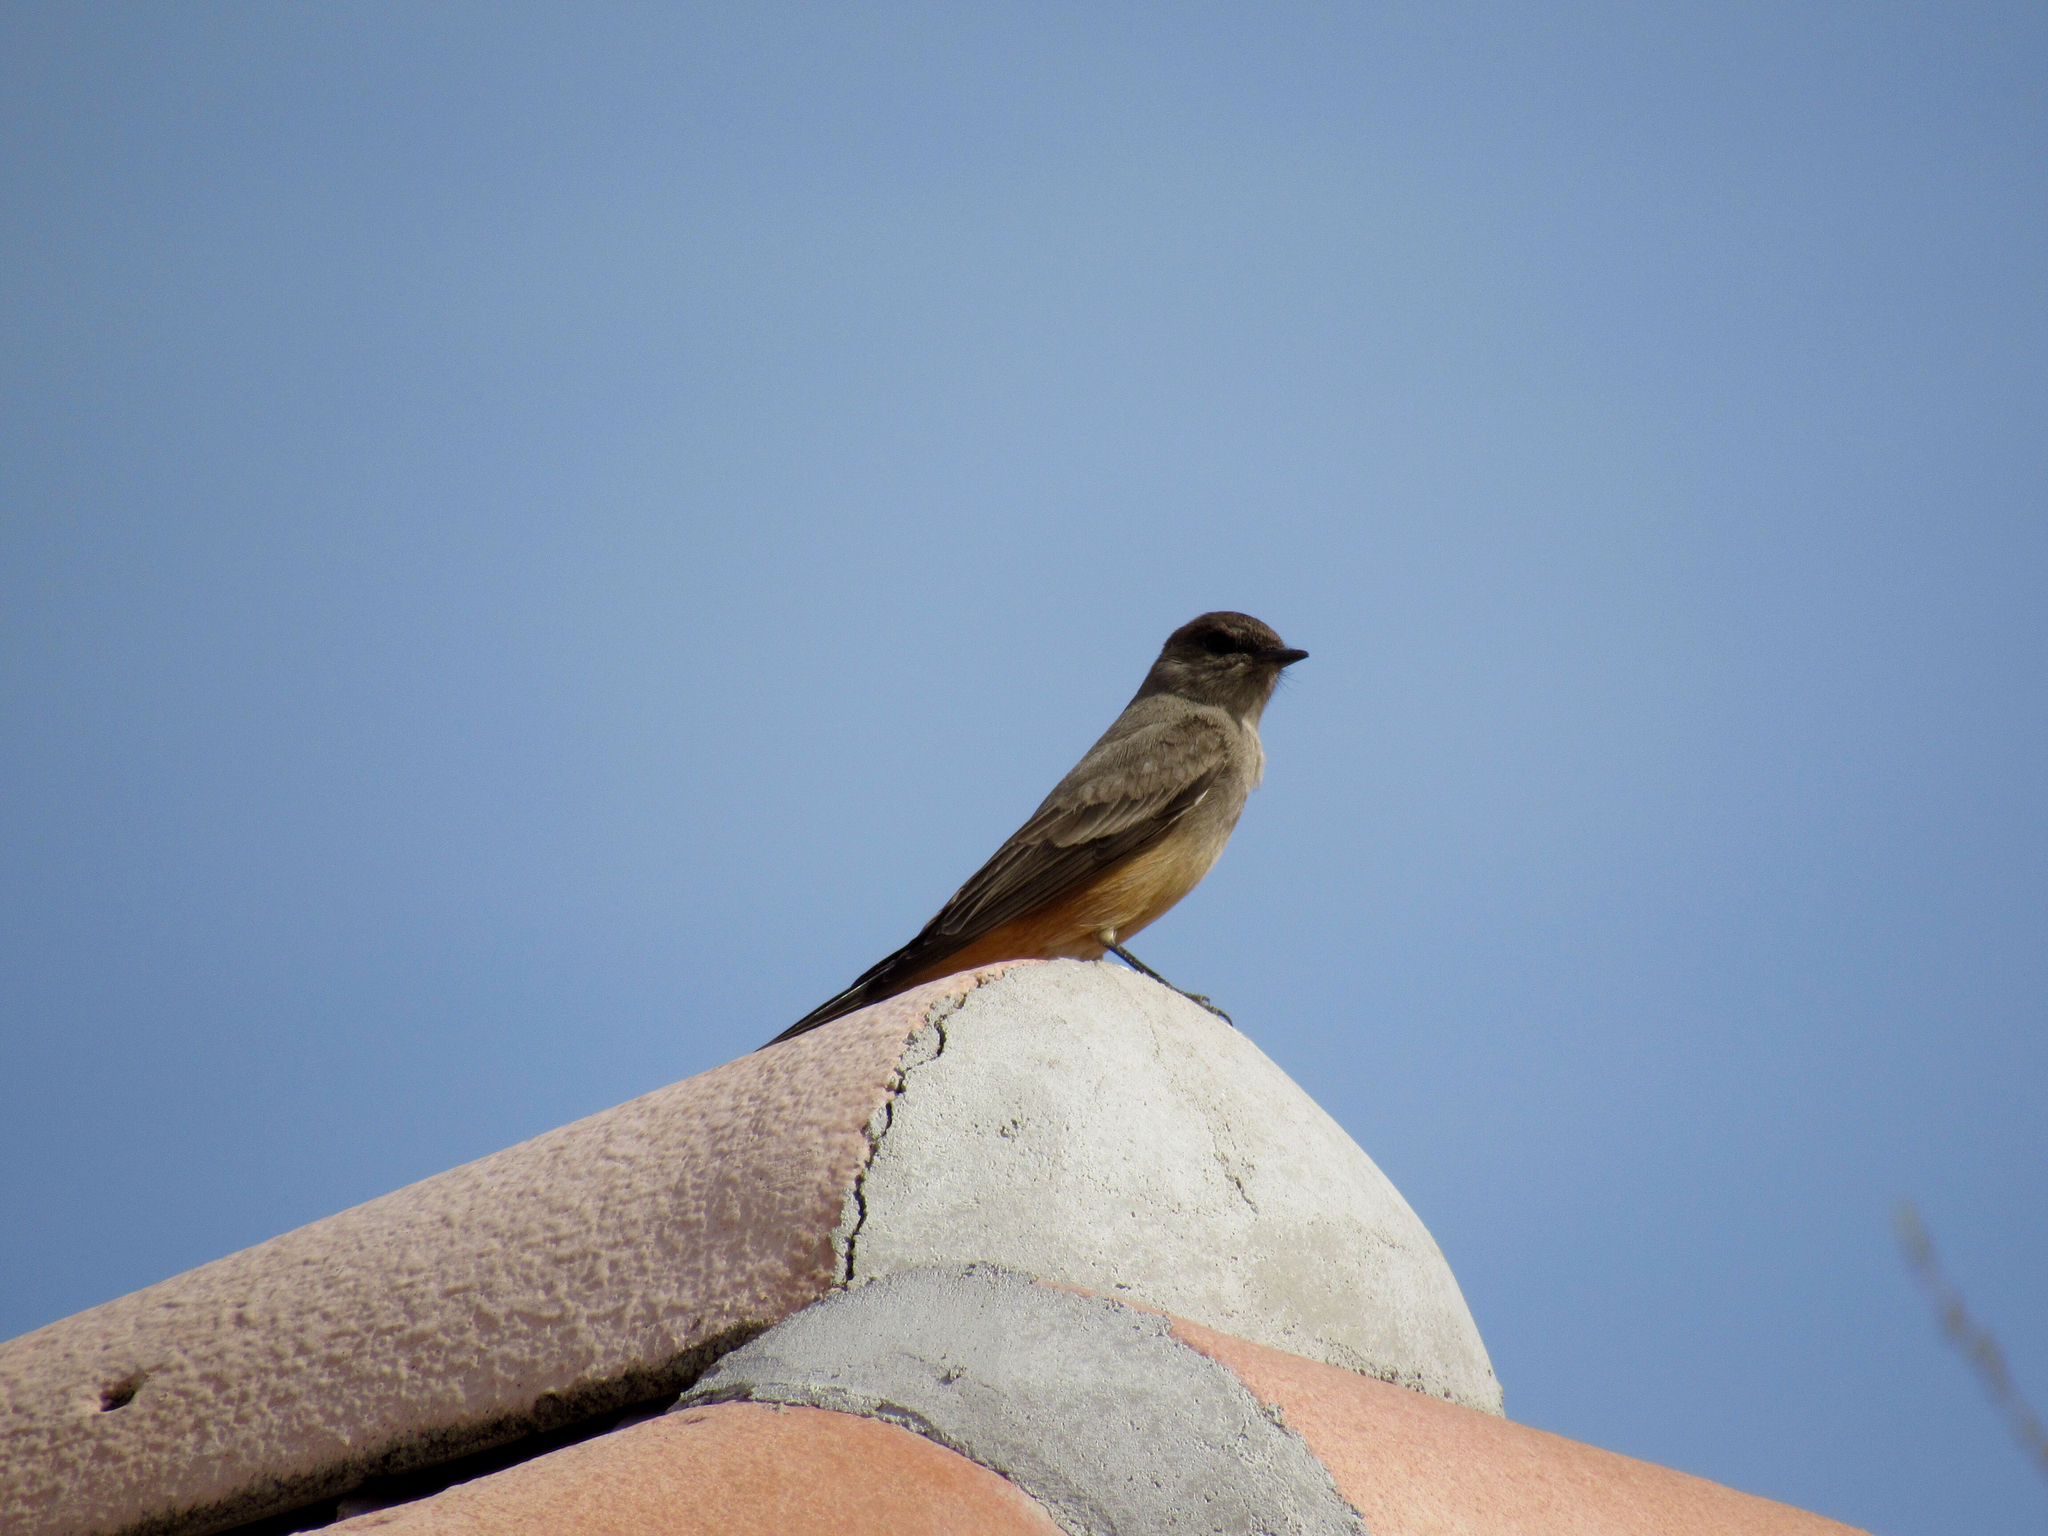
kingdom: Animalia
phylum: Chordata
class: Aves
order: Passeriformes
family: Tyrannidae
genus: Sayornis
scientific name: Sayornis saya
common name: Say's phoebe
